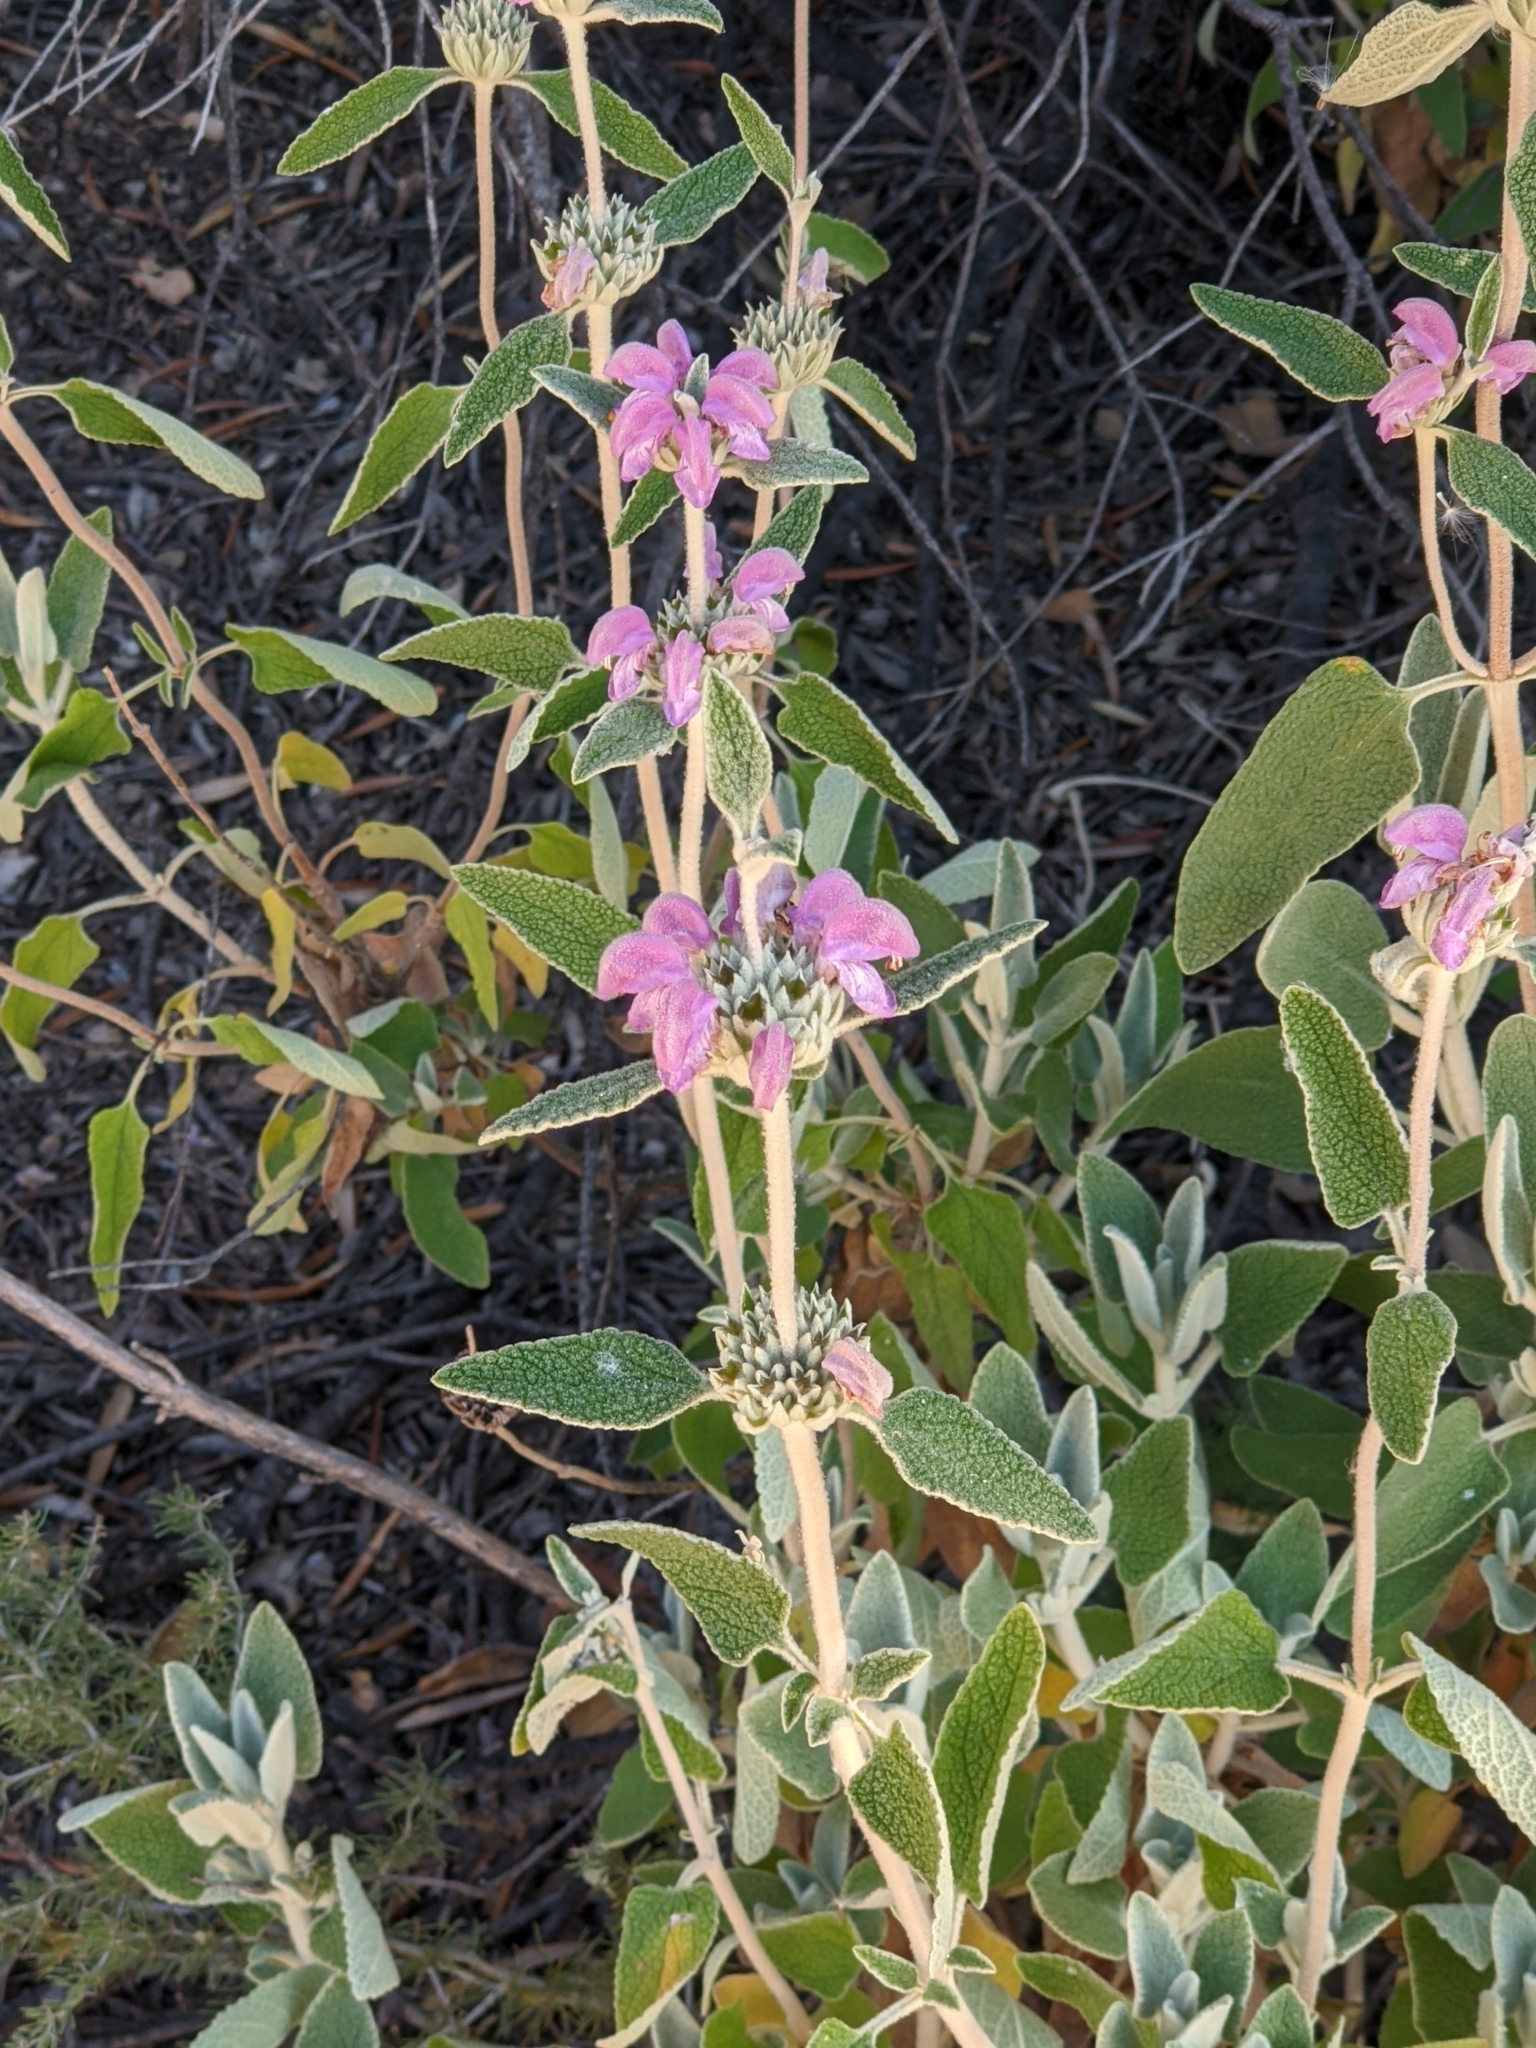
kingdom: Plantae
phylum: Tracheophyta
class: Magnoliopsida
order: Lamiales
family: Lamiaceae
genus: Phlomis
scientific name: Phlomis purpurea
